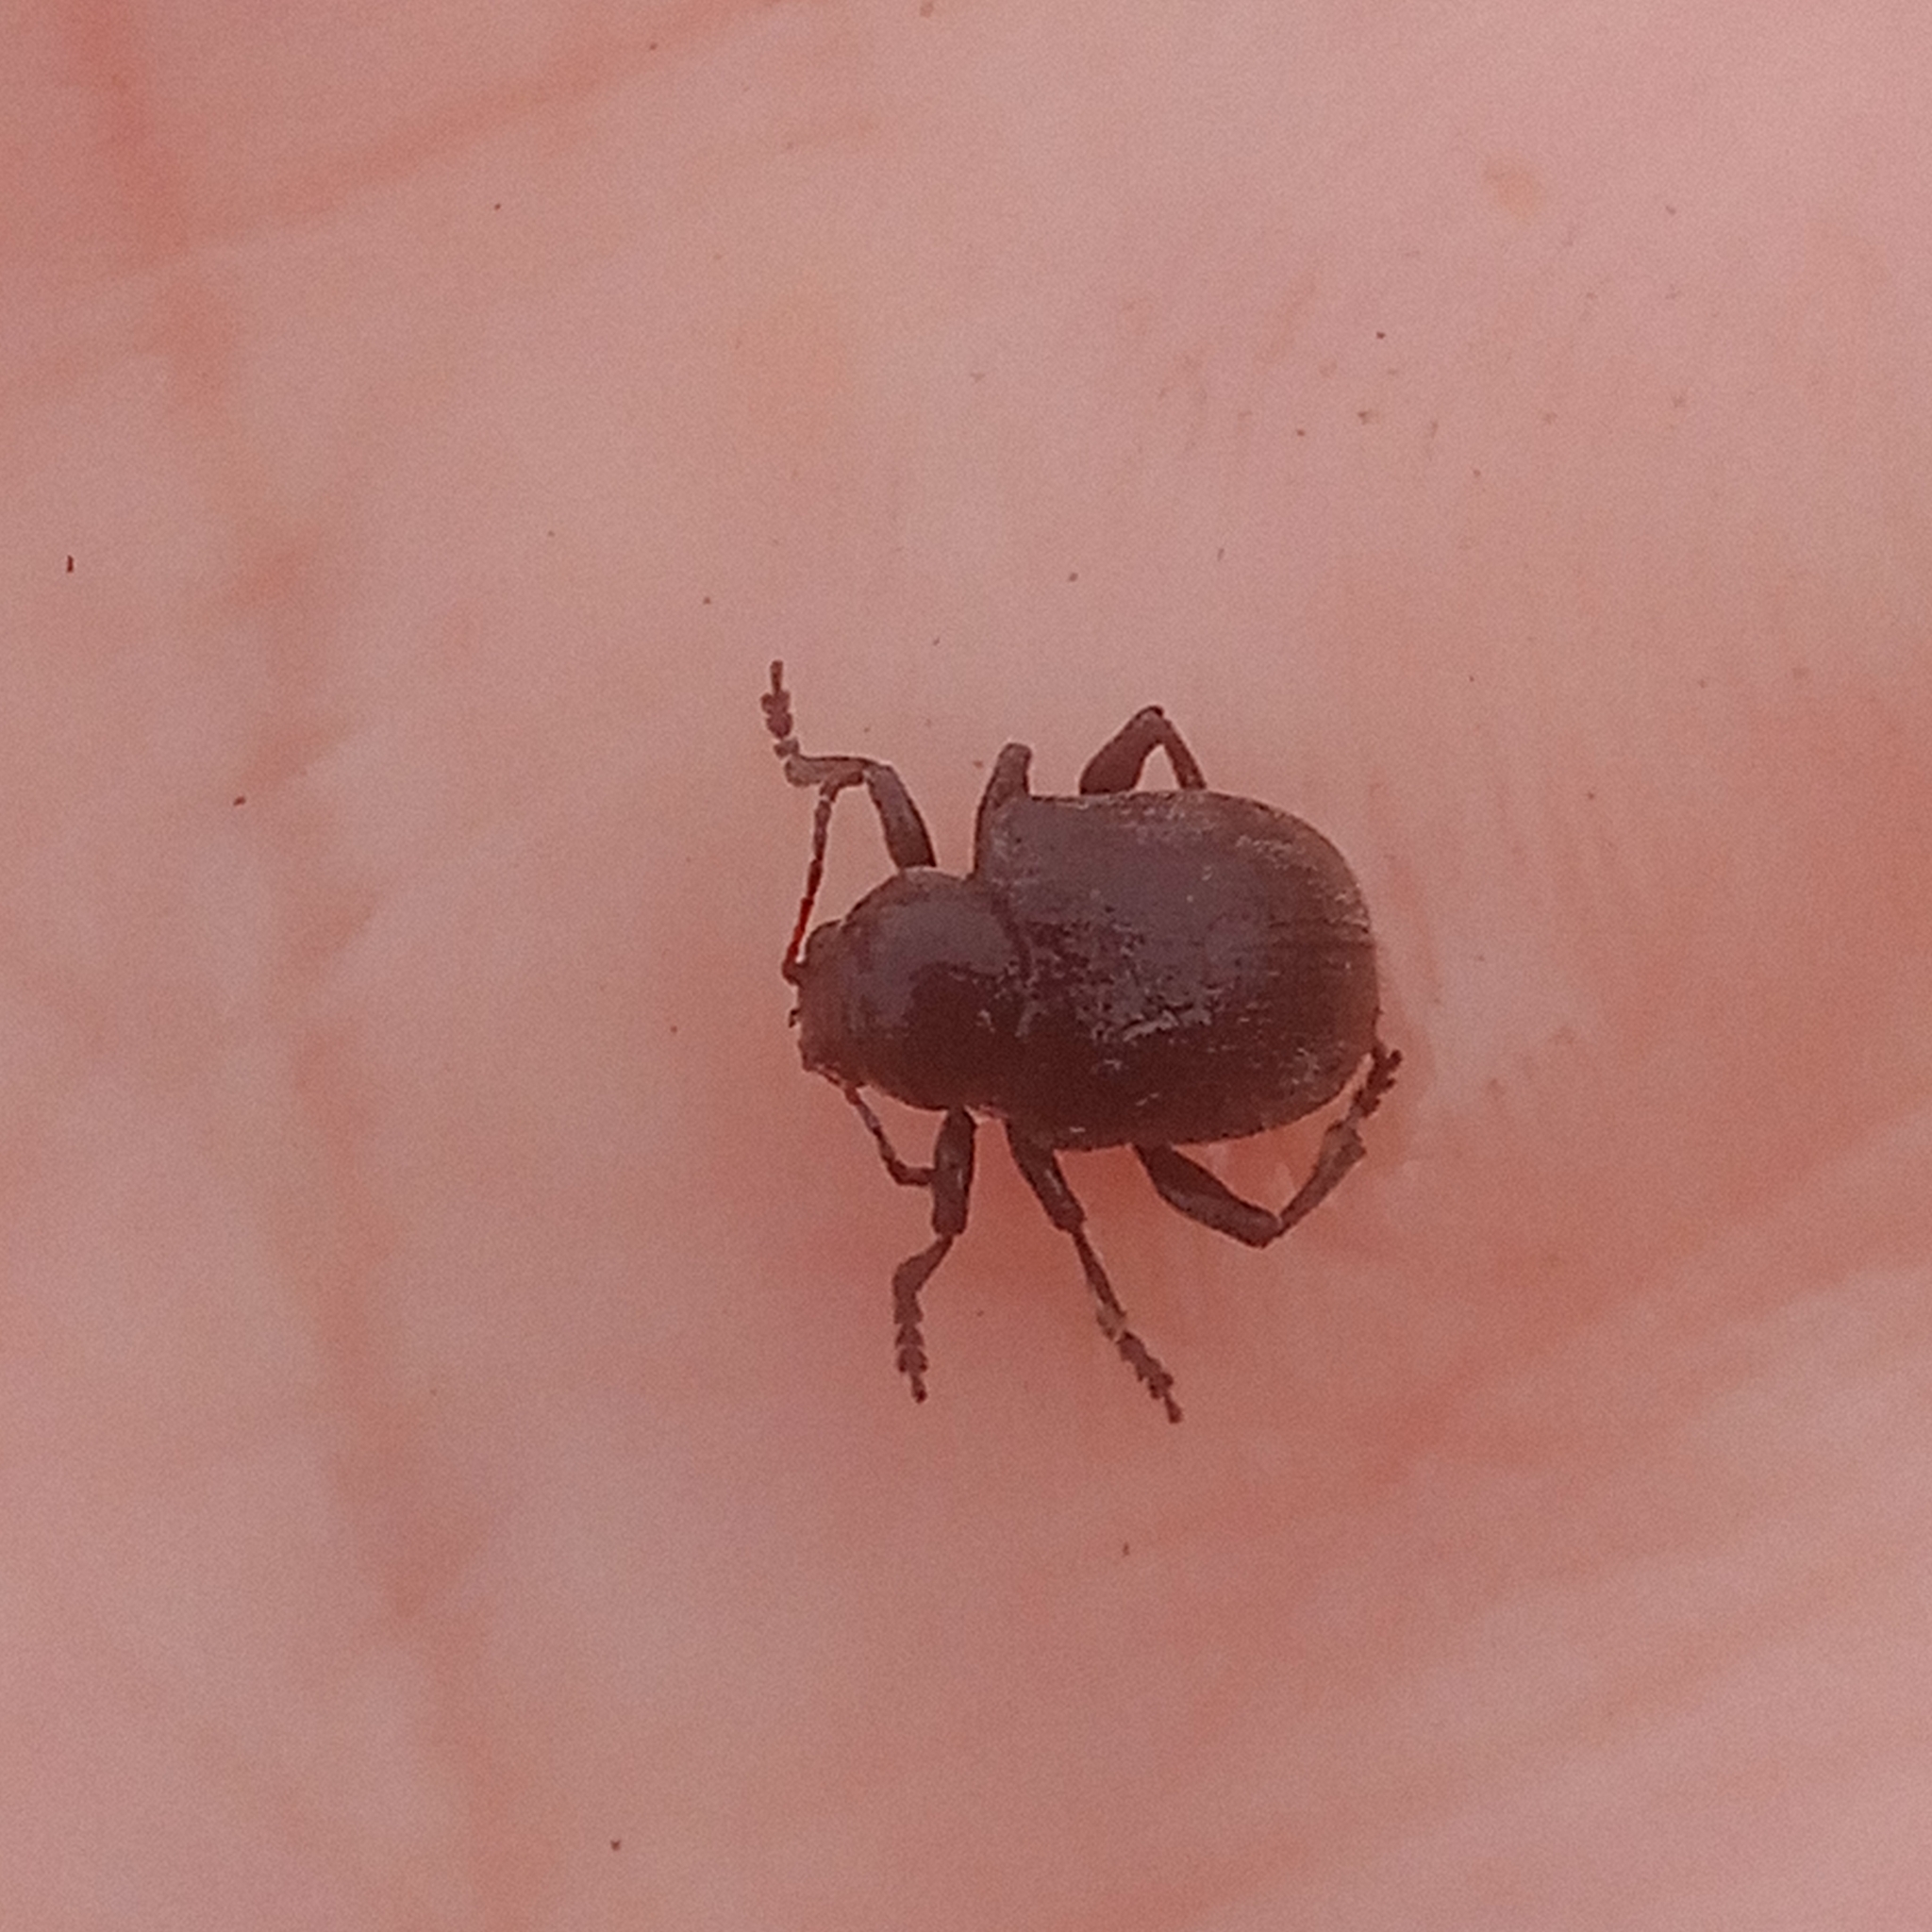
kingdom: Animalia
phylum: Arthropoda
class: Insecta
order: Coleoptera
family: Chrysomelidae
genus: Bromius
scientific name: Bromius obscurus
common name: Western grape rootworm
